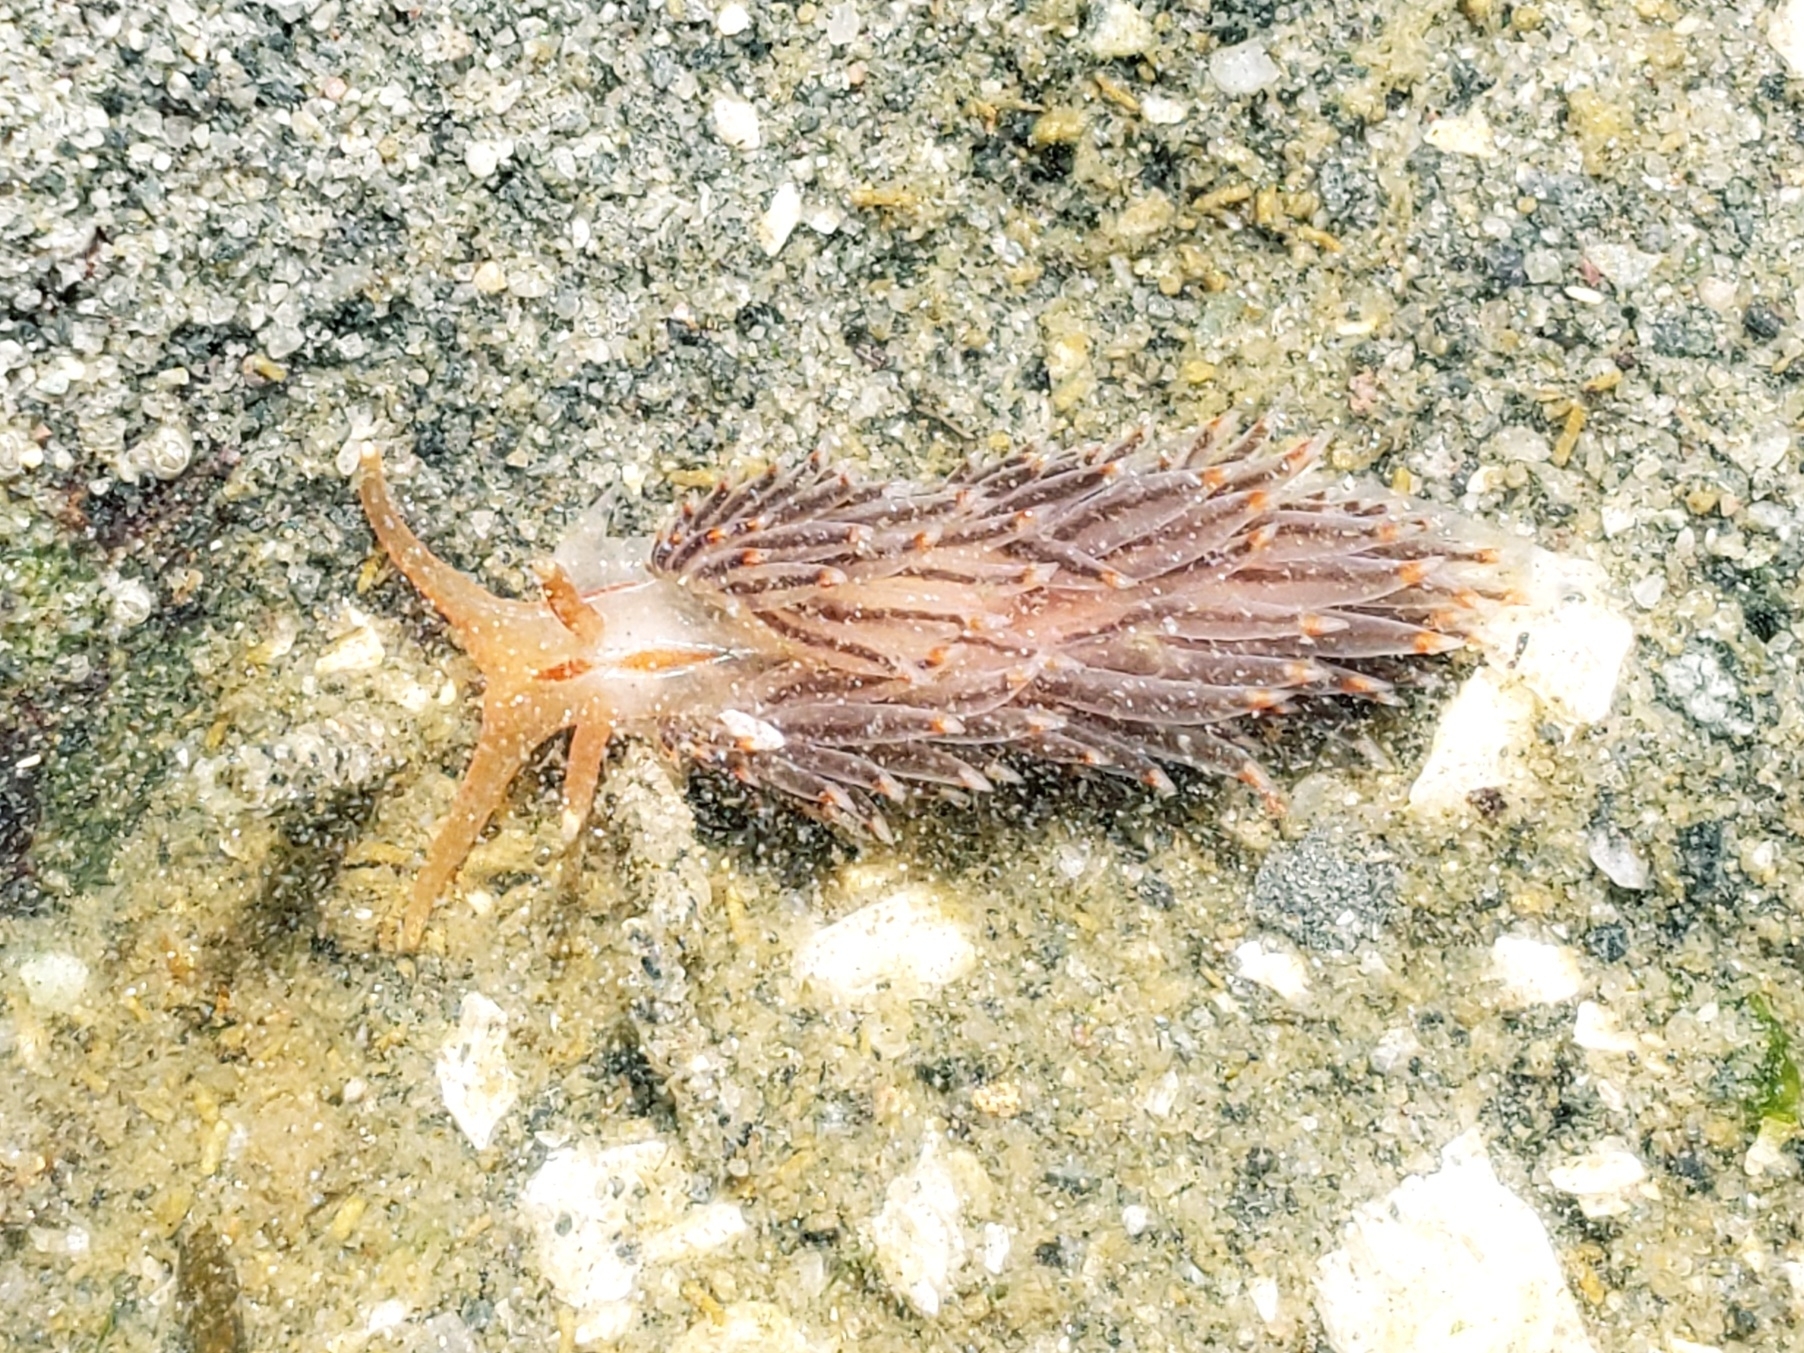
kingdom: Animalia
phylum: Mollusca
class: Gastropoda
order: Nudibranchia
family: Myrrhinidae
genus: Hermissenda
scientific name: Hermissenda opalescens
